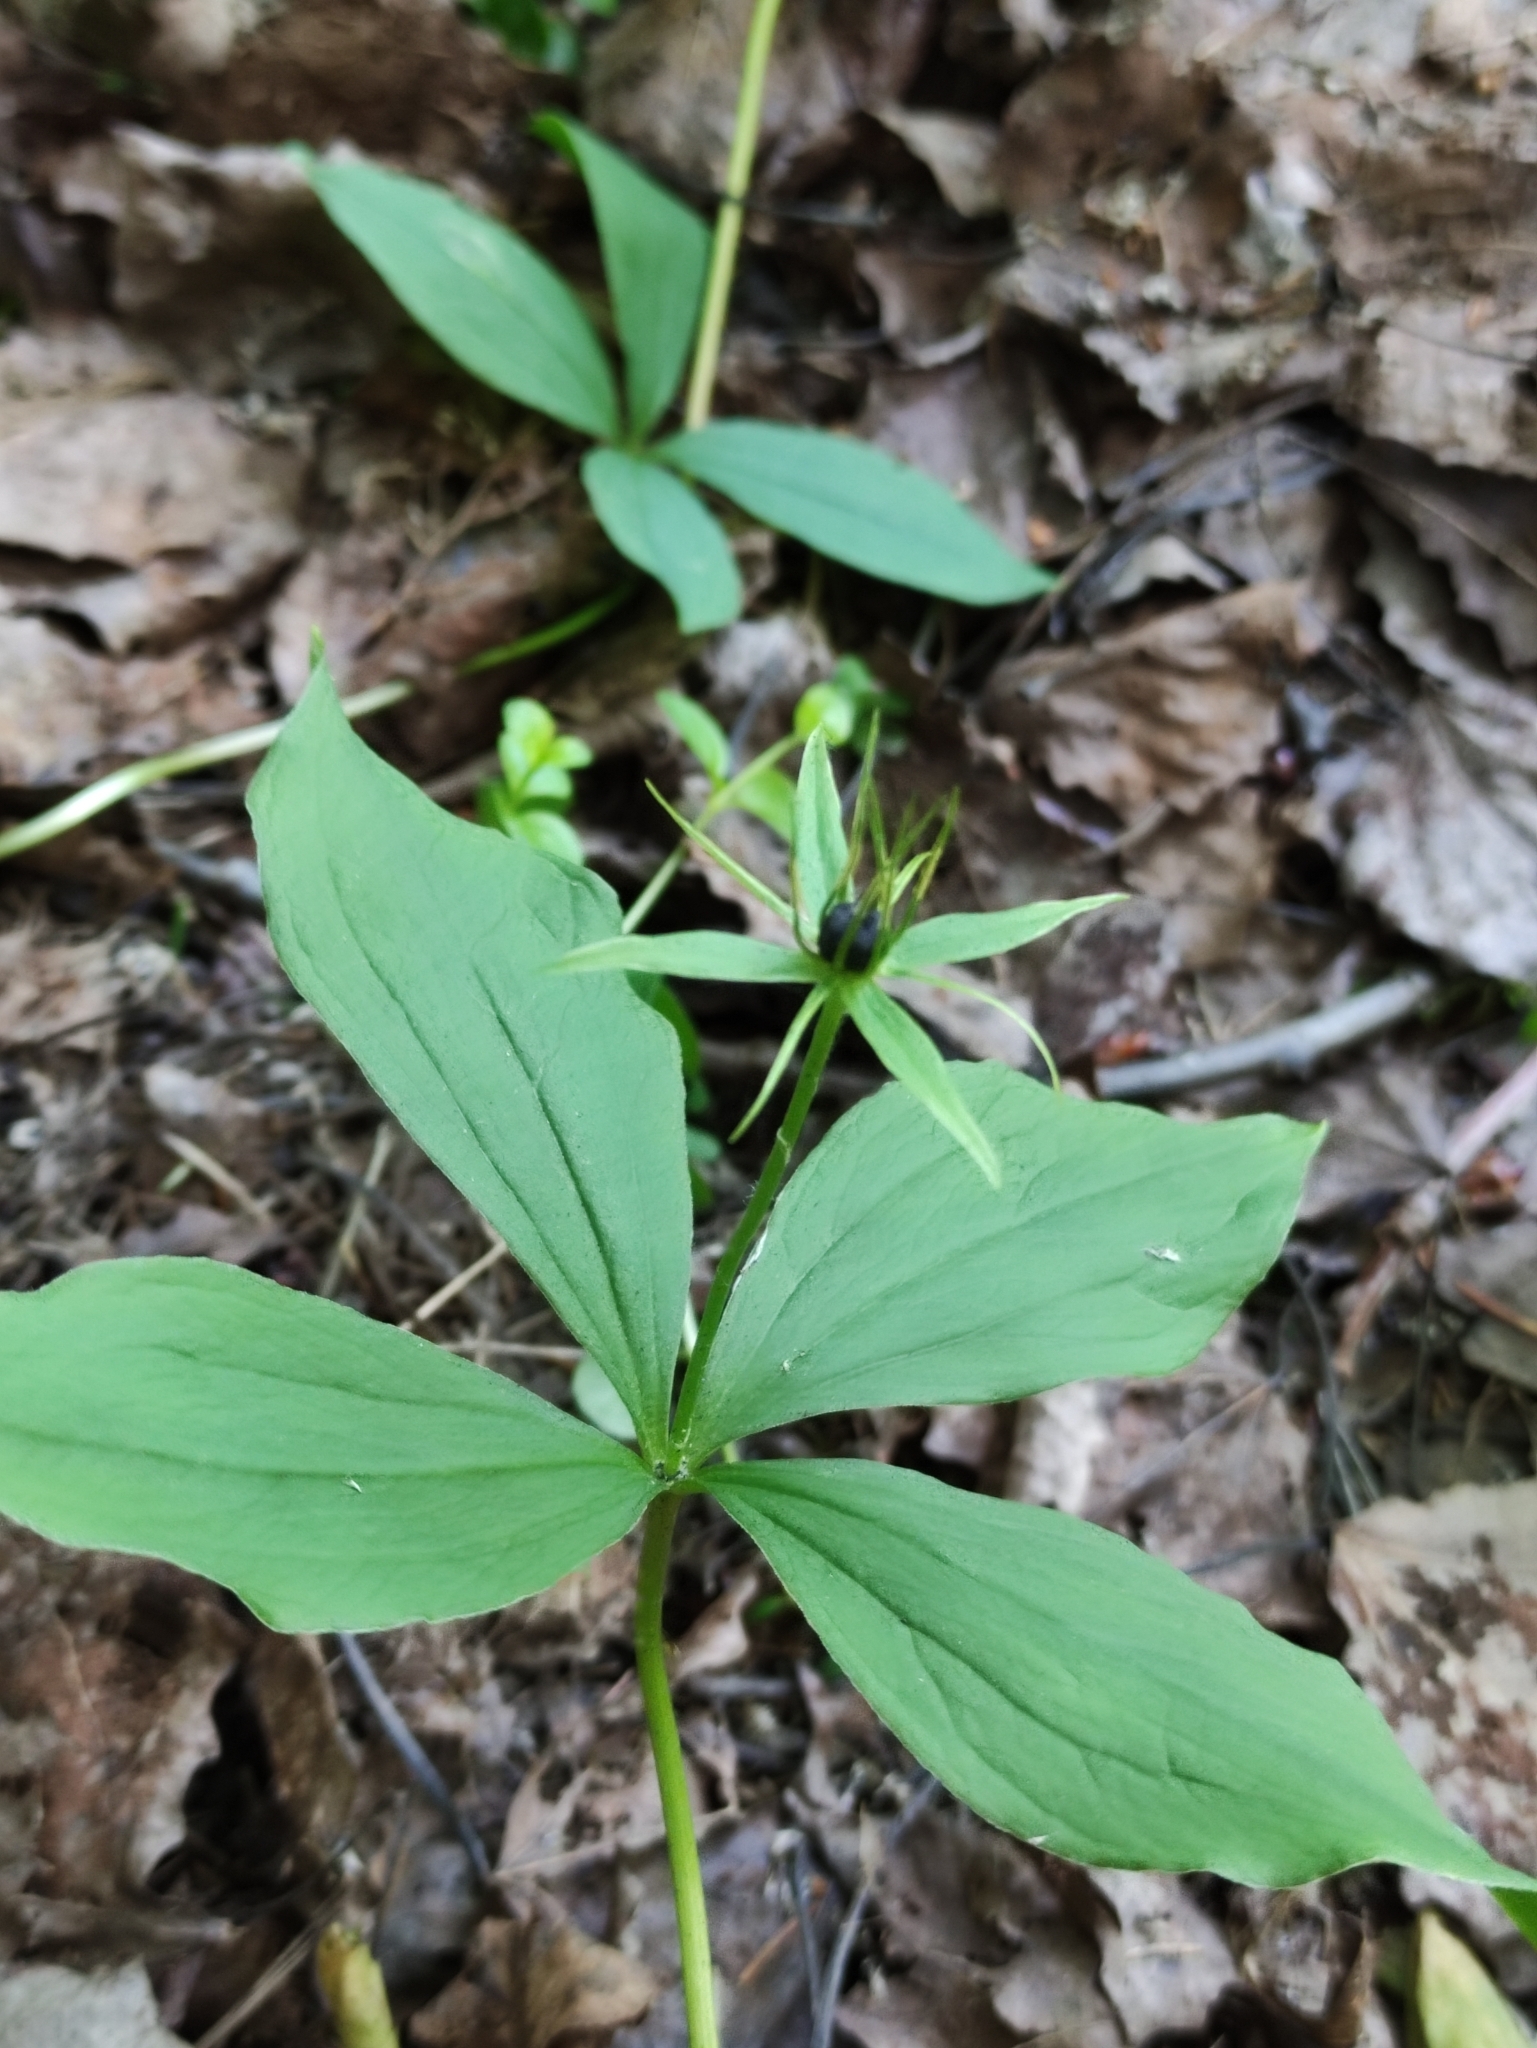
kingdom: Plantae
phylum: Tracheophyta
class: Liliopsida
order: Liliales
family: Melanthiaceae
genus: Paris
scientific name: Paris quadrifolia
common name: Herb-paris
